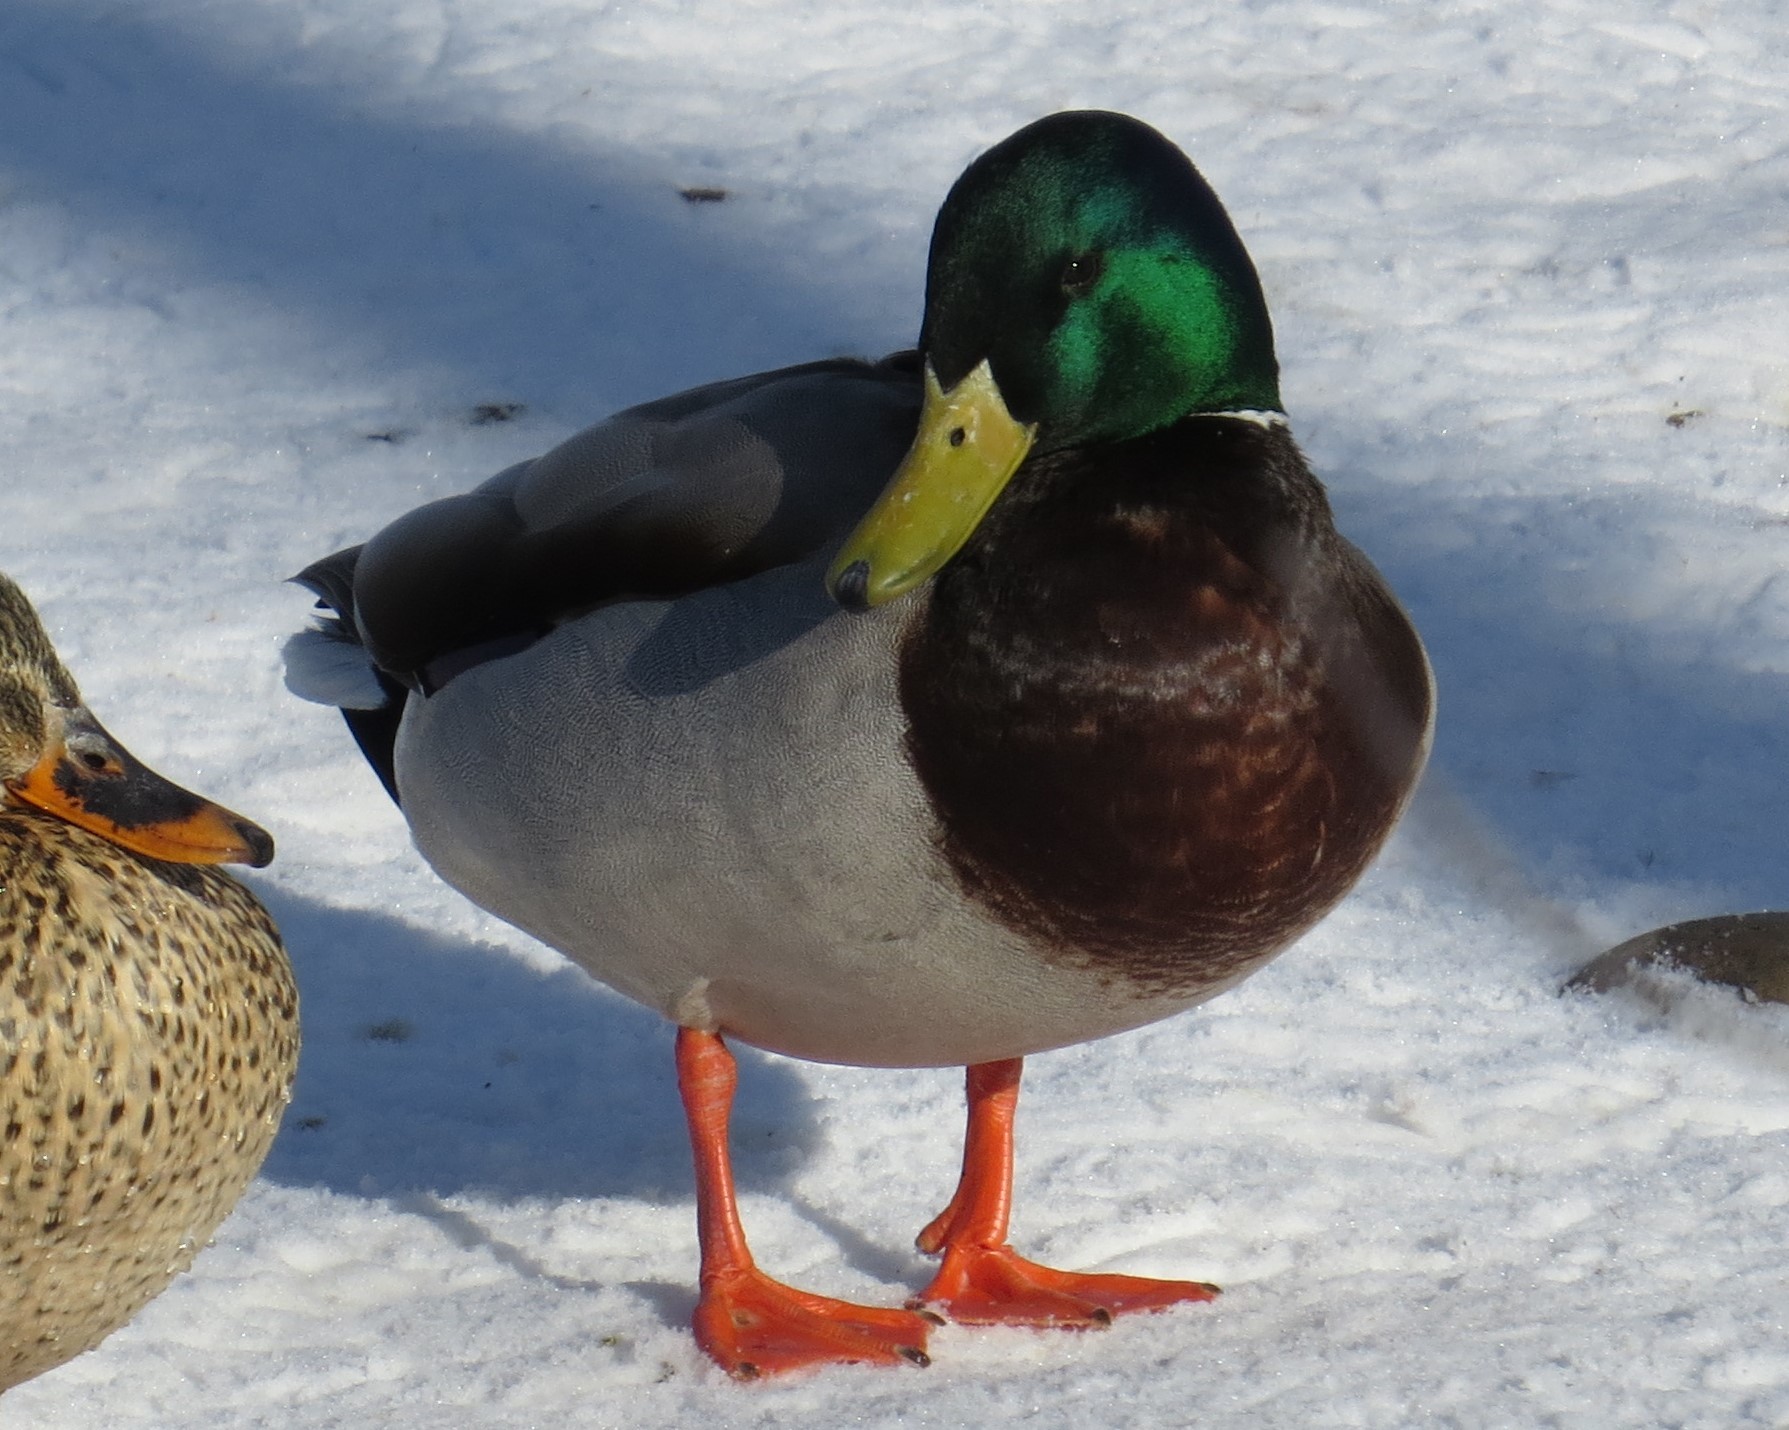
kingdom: Animalia
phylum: Chordata
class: Aves
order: Anseriformes
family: Anatidae
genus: Anas
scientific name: Anas platyrhynchos
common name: Mallard
